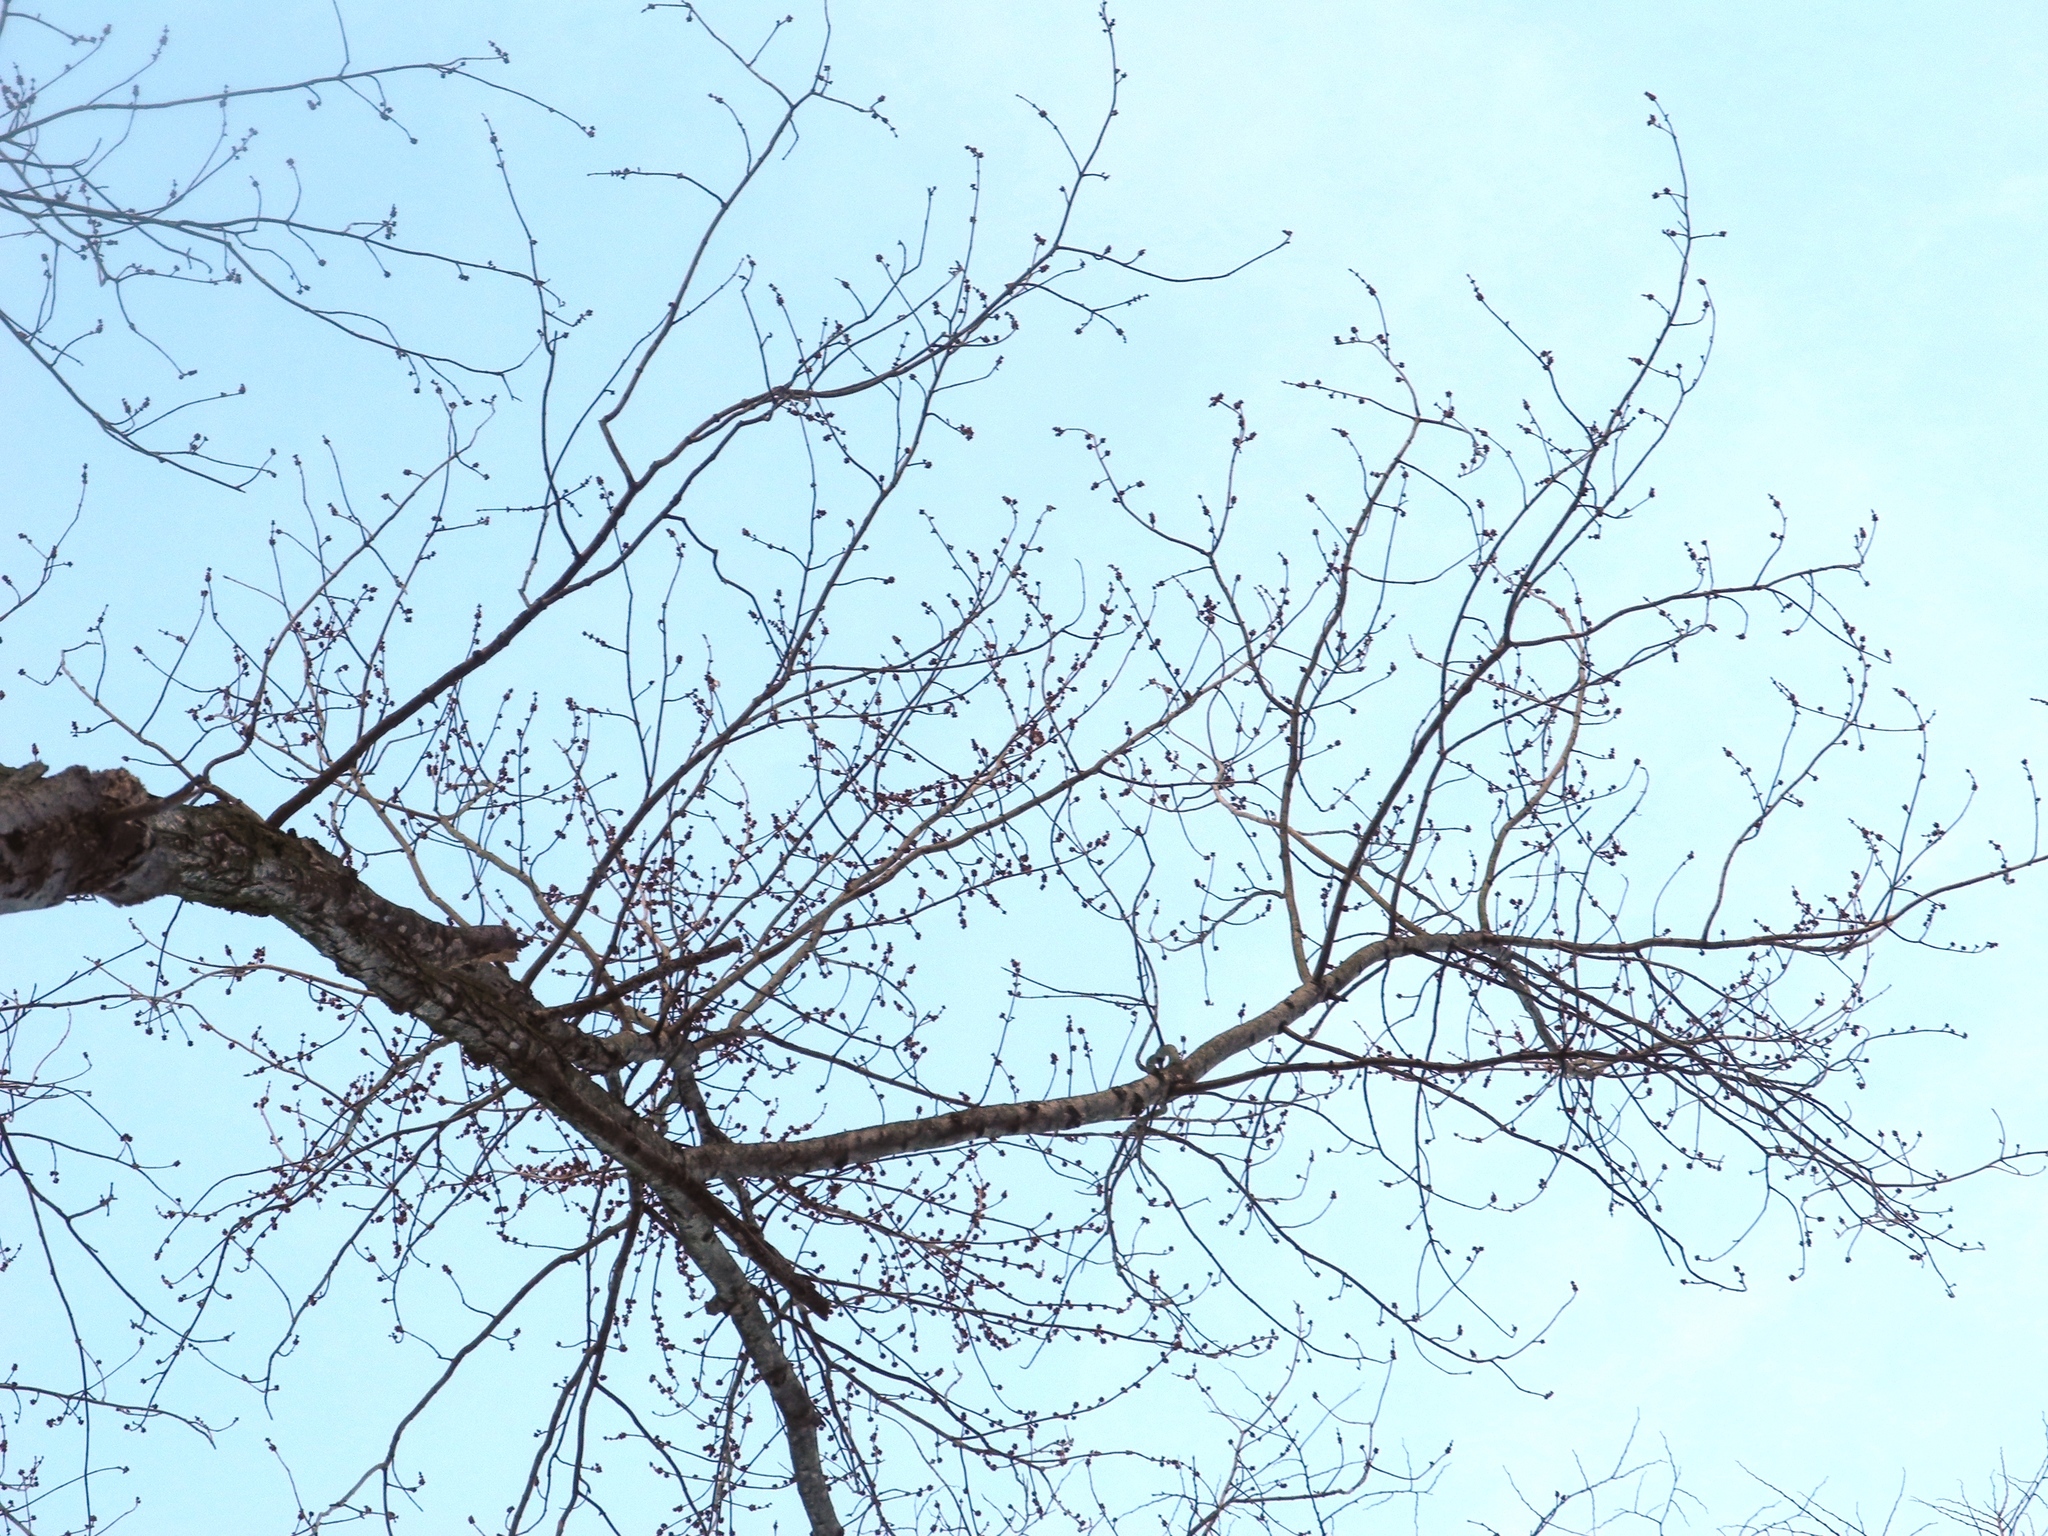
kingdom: Plantae
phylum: Tracheophyta
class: Magnoliopsida
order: Sapindales
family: Sapindaceae
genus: Acer
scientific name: Acer rubrum
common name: Red maple
